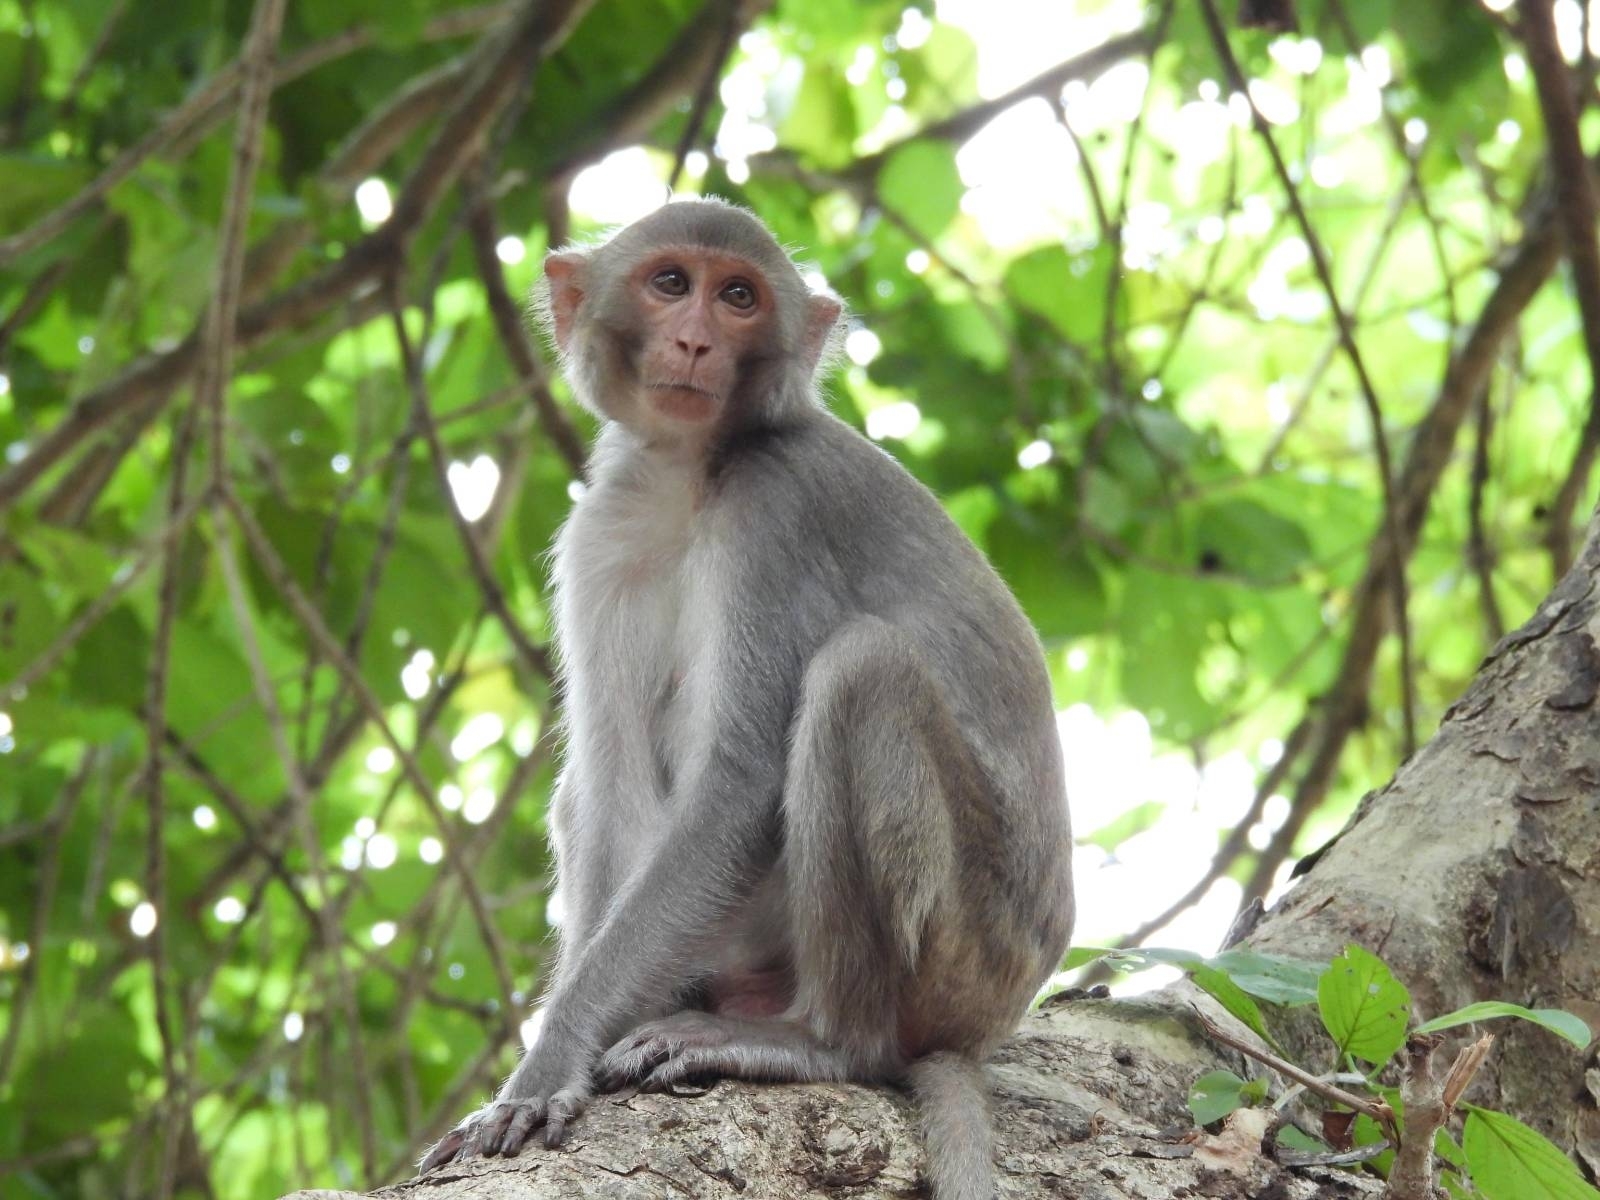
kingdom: Animalia
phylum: Chordata
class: Mammalia
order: Primates
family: Cercopithecidae
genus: Macaca
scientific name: Macaca mulatta
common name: Rhesus monkey
